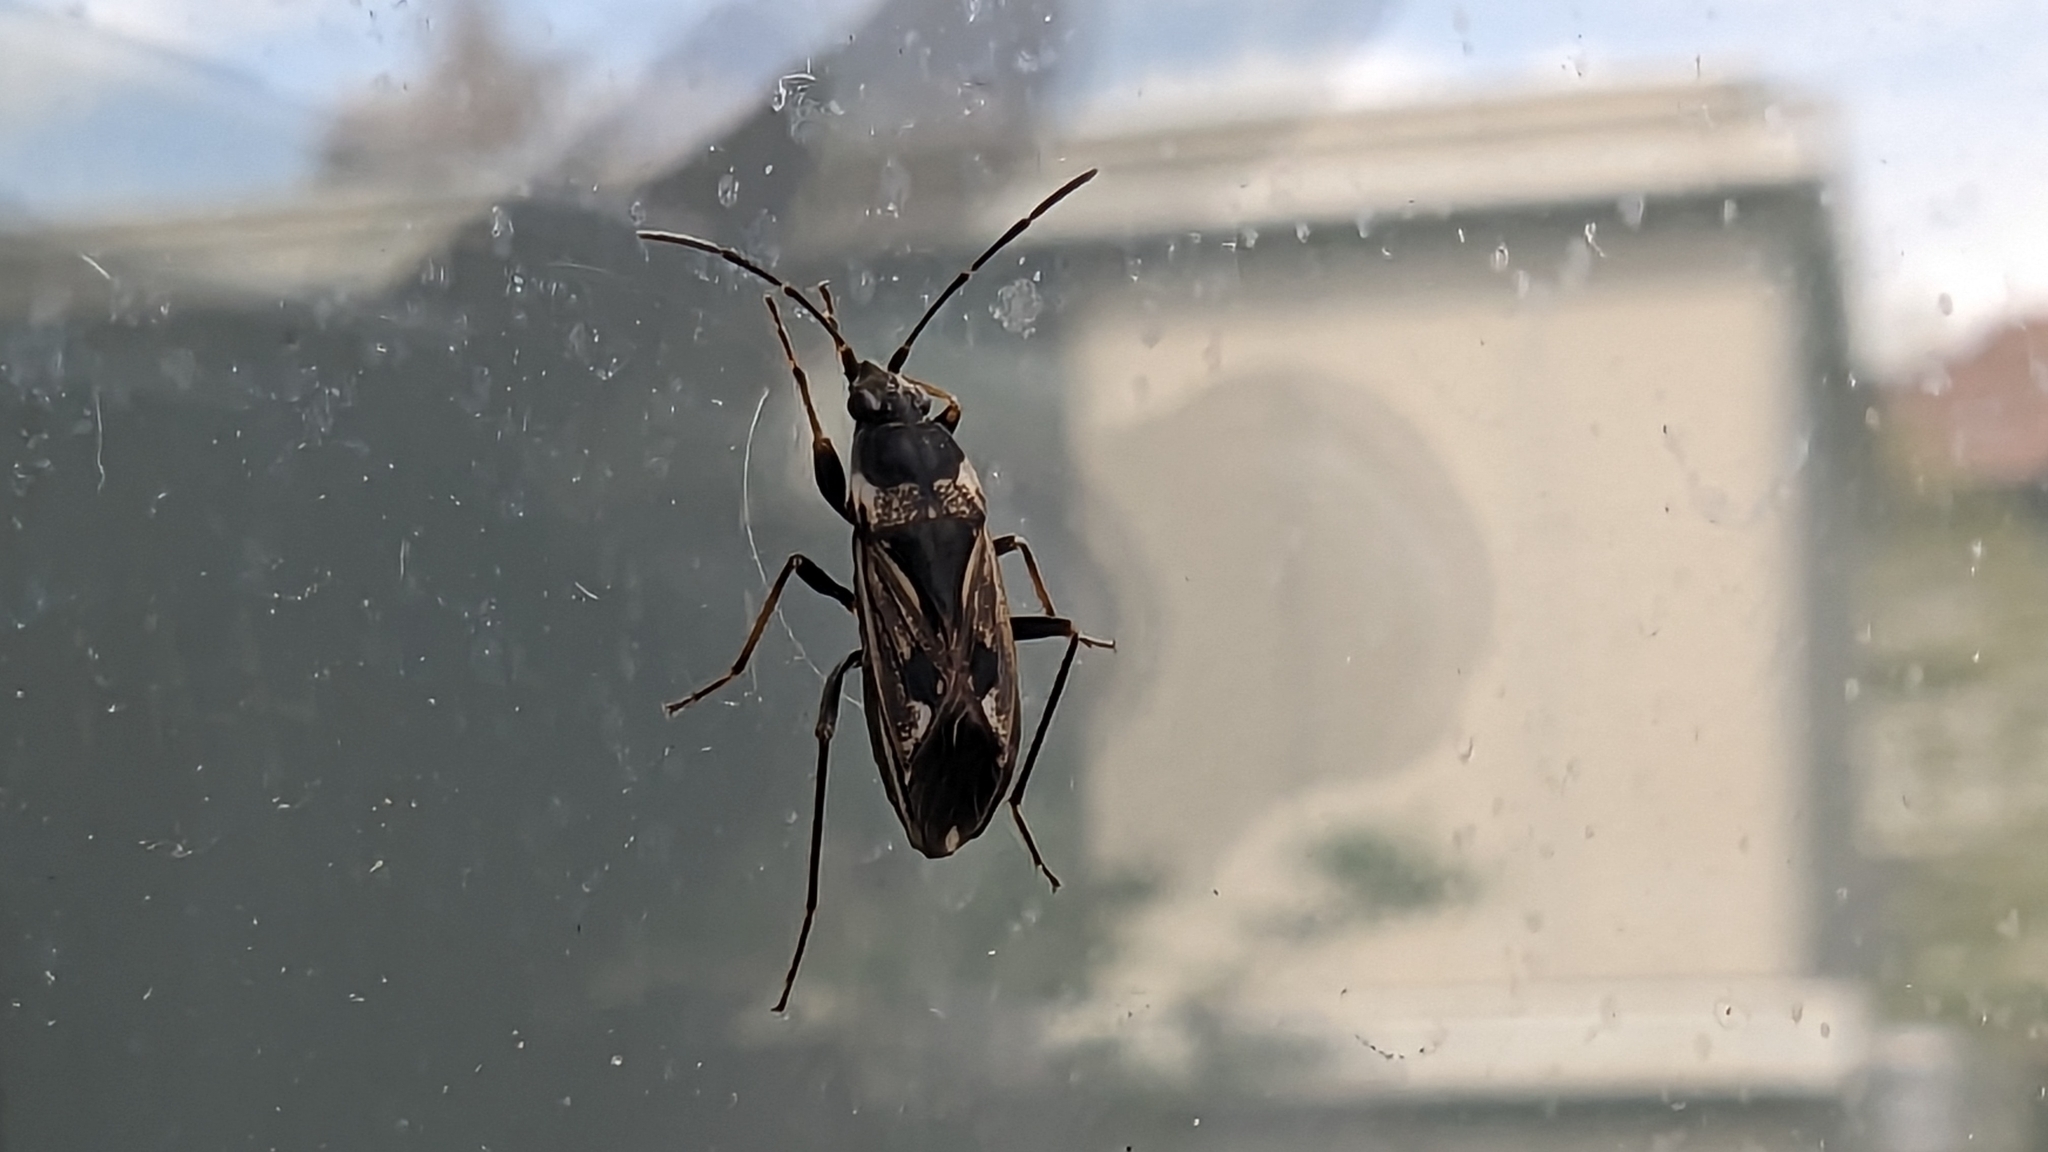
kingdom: Animalia
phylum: Arthropoda
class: Insecta
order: Hemiptera
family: Rhyparochromidae
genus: Rhyparochromus
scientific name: Rhyparochromus vulgaris
